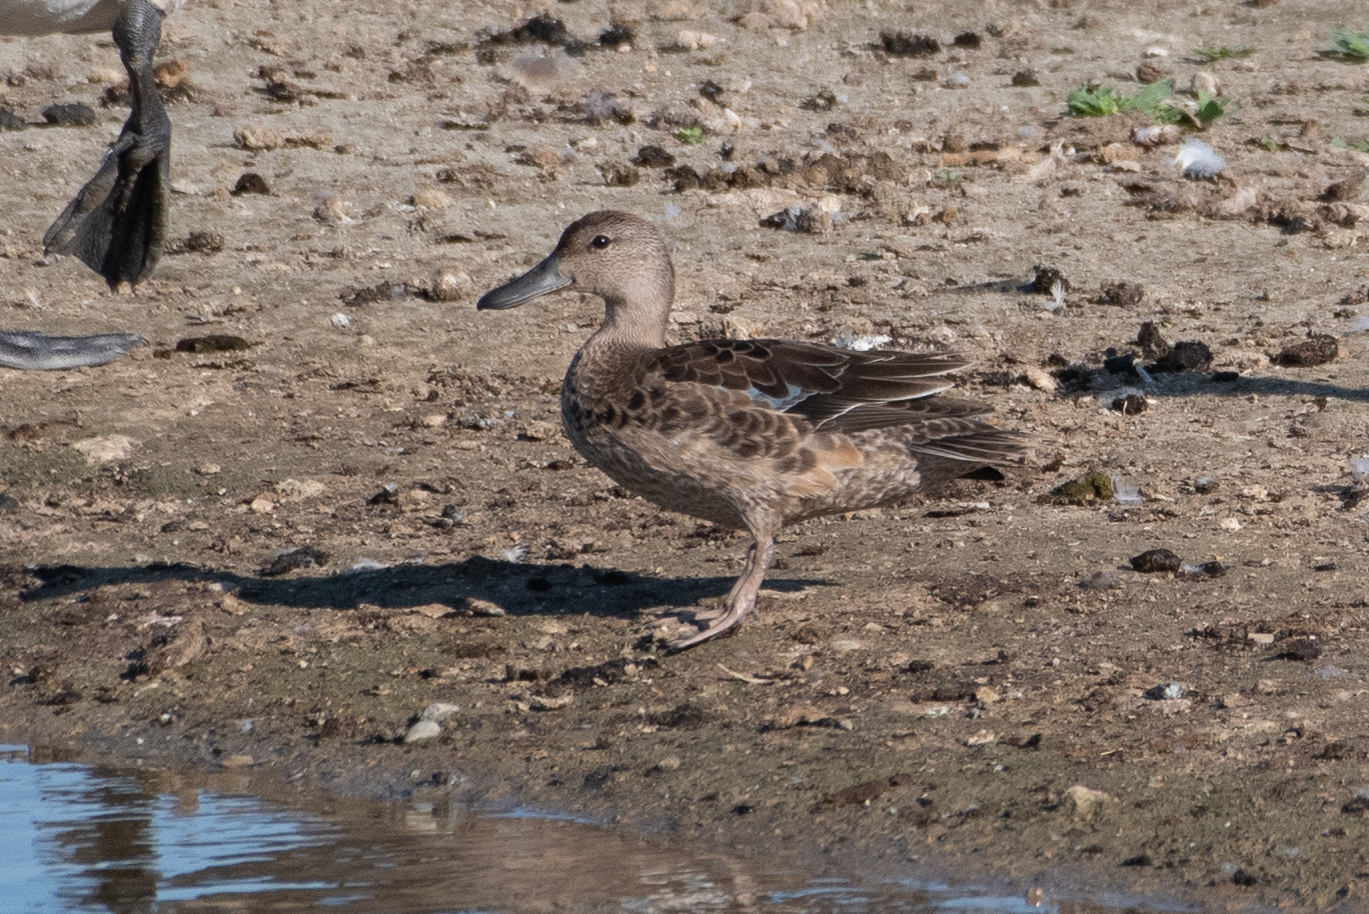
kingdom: Animalia
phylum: Chordata
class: Aves
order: Anseriformes
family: Anatidae
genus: Spatula
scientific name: Spatula cyanoptera
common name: Cinnamon teal
